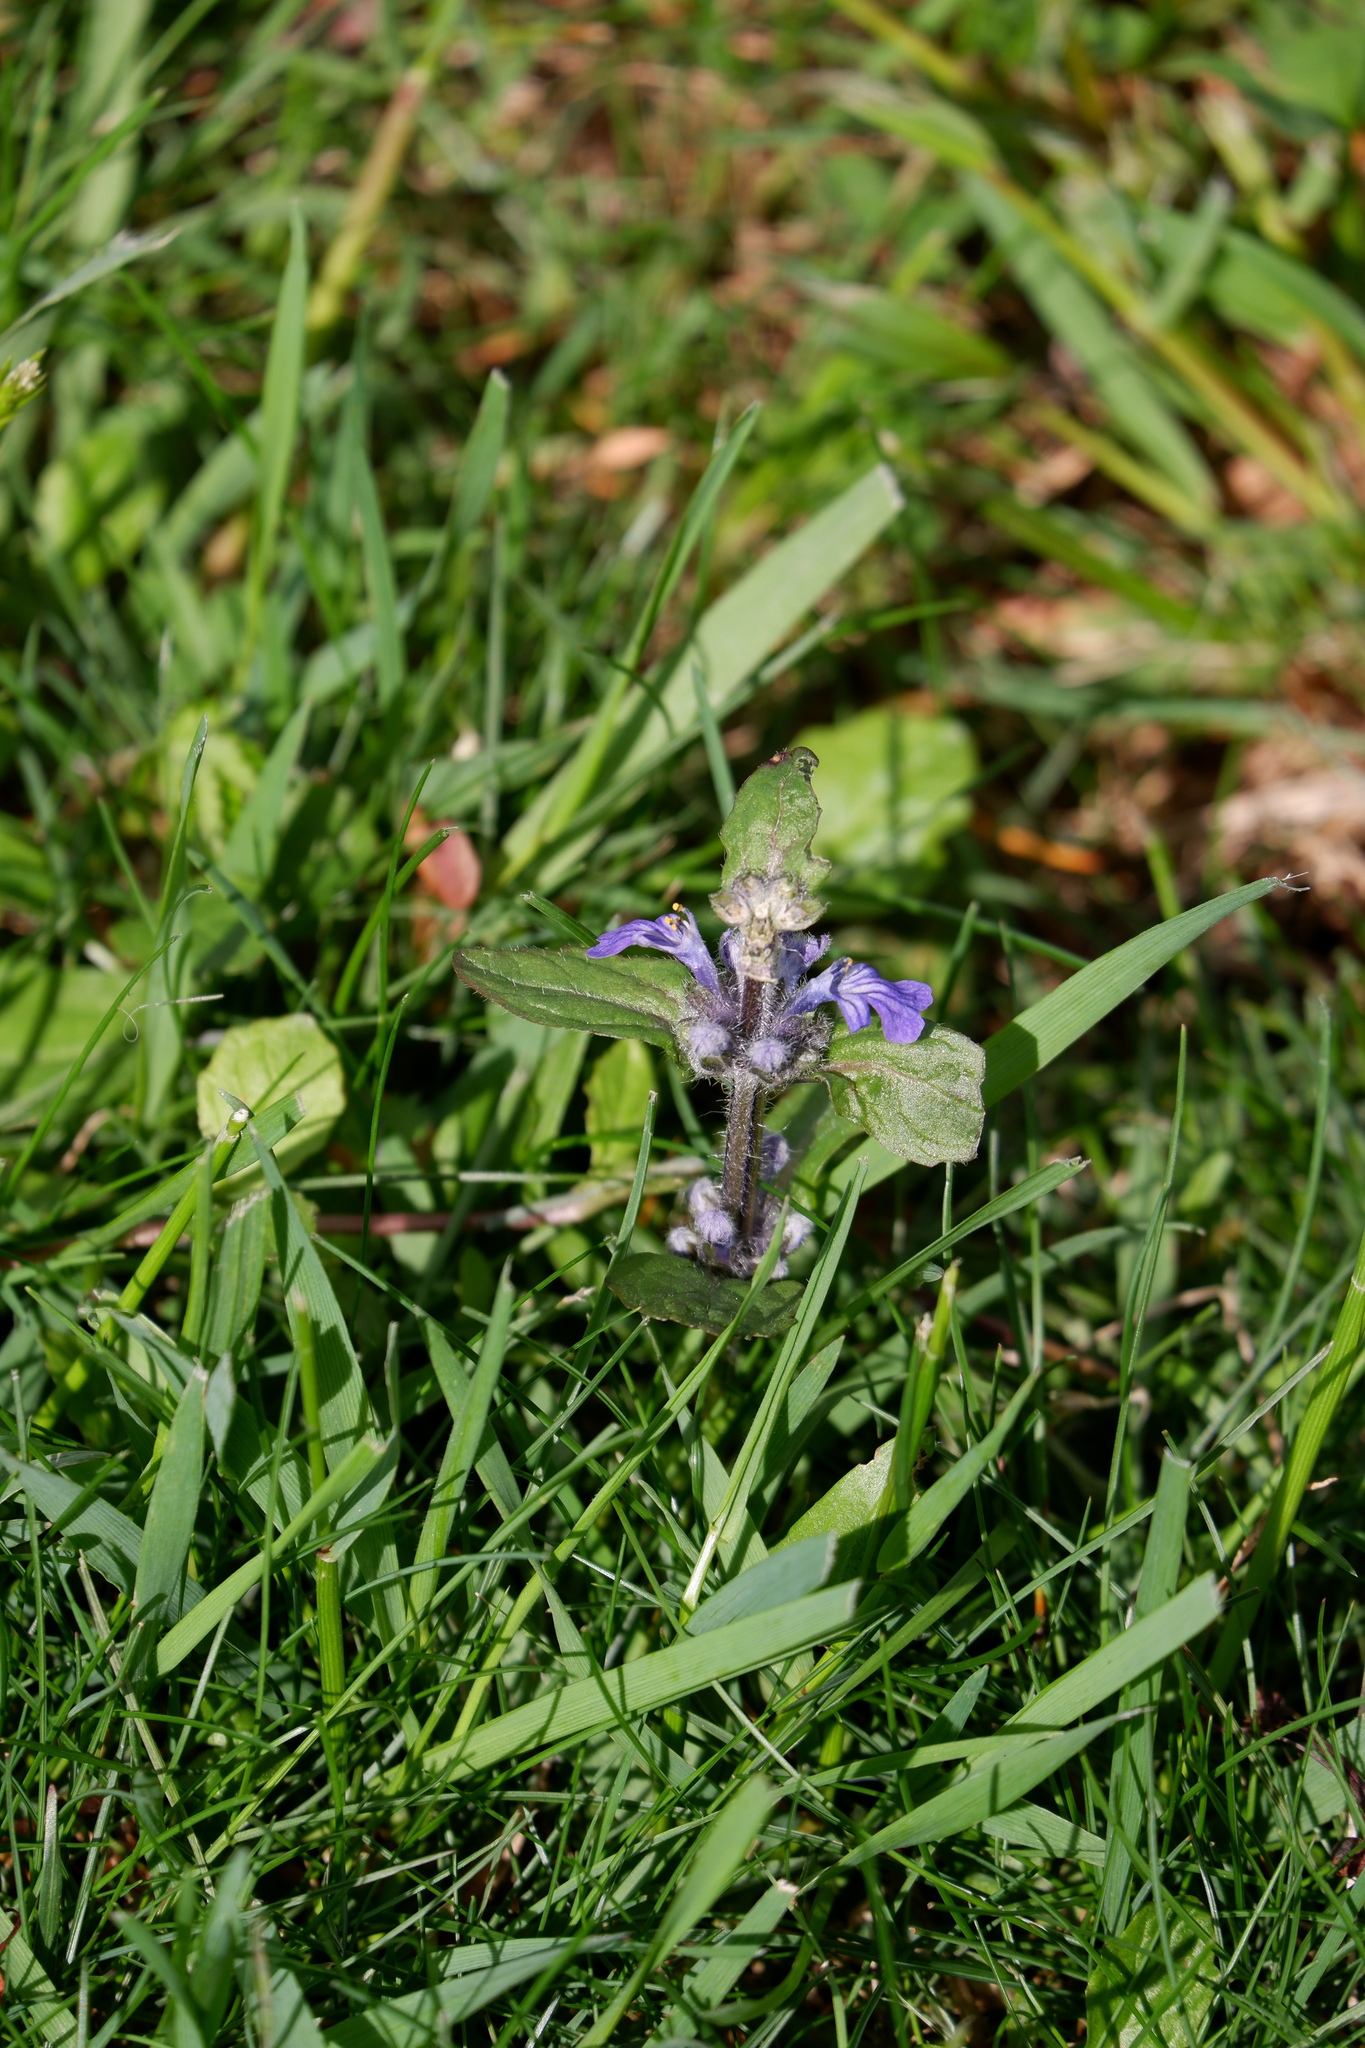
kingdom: Plantae
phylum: Tracheophyta
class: Magnoliopsida
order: Lamiales
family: Lamiaceae
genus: Ajuga
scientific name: Ajuga reptans
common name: Bugle
